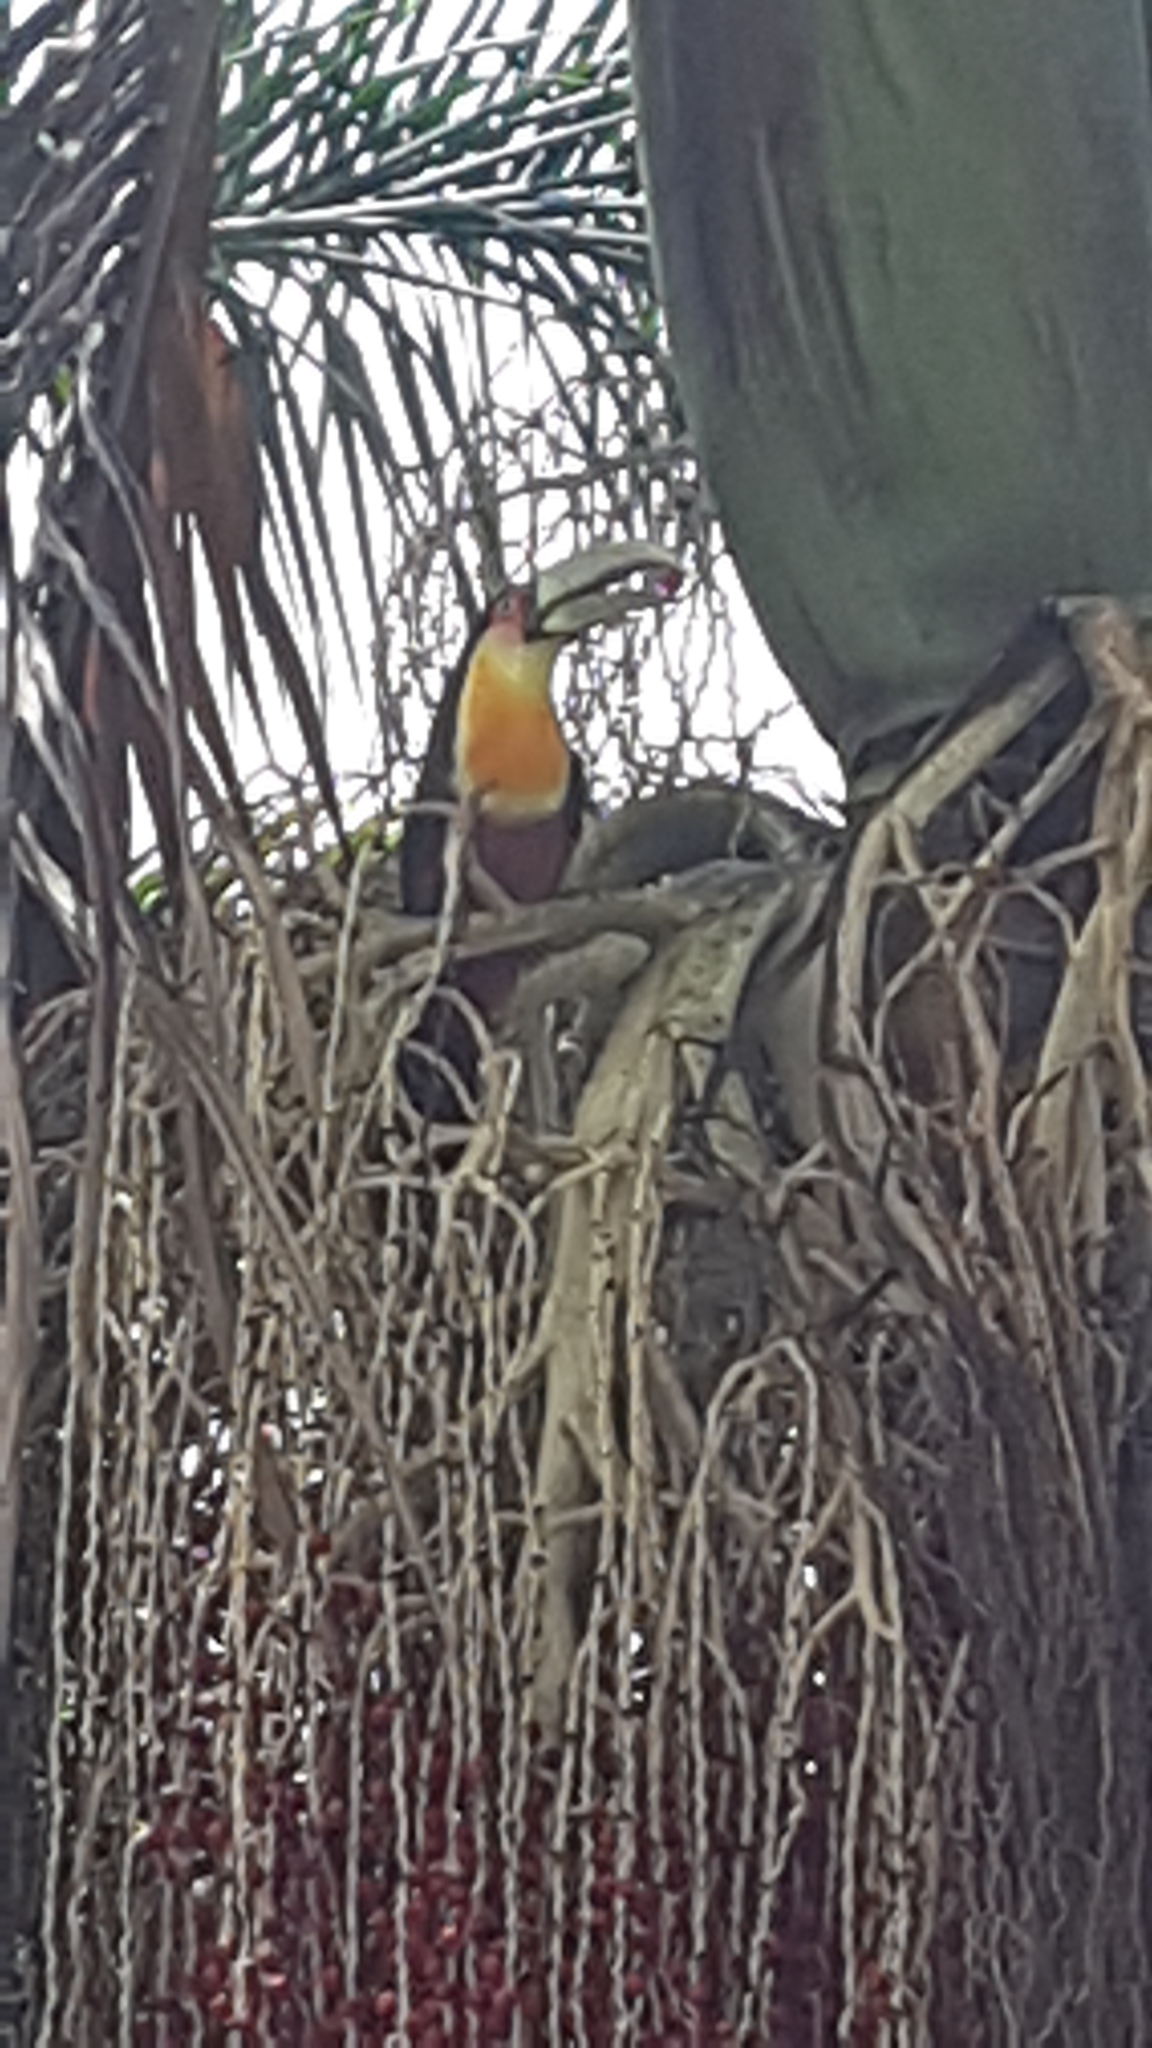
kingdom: Animalia
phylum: Chordata
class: Aves
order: Piciformes
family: Ramphastidae
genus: Ramphastos
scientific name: Ramphastos dicolorus
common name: Green-billed toucan
